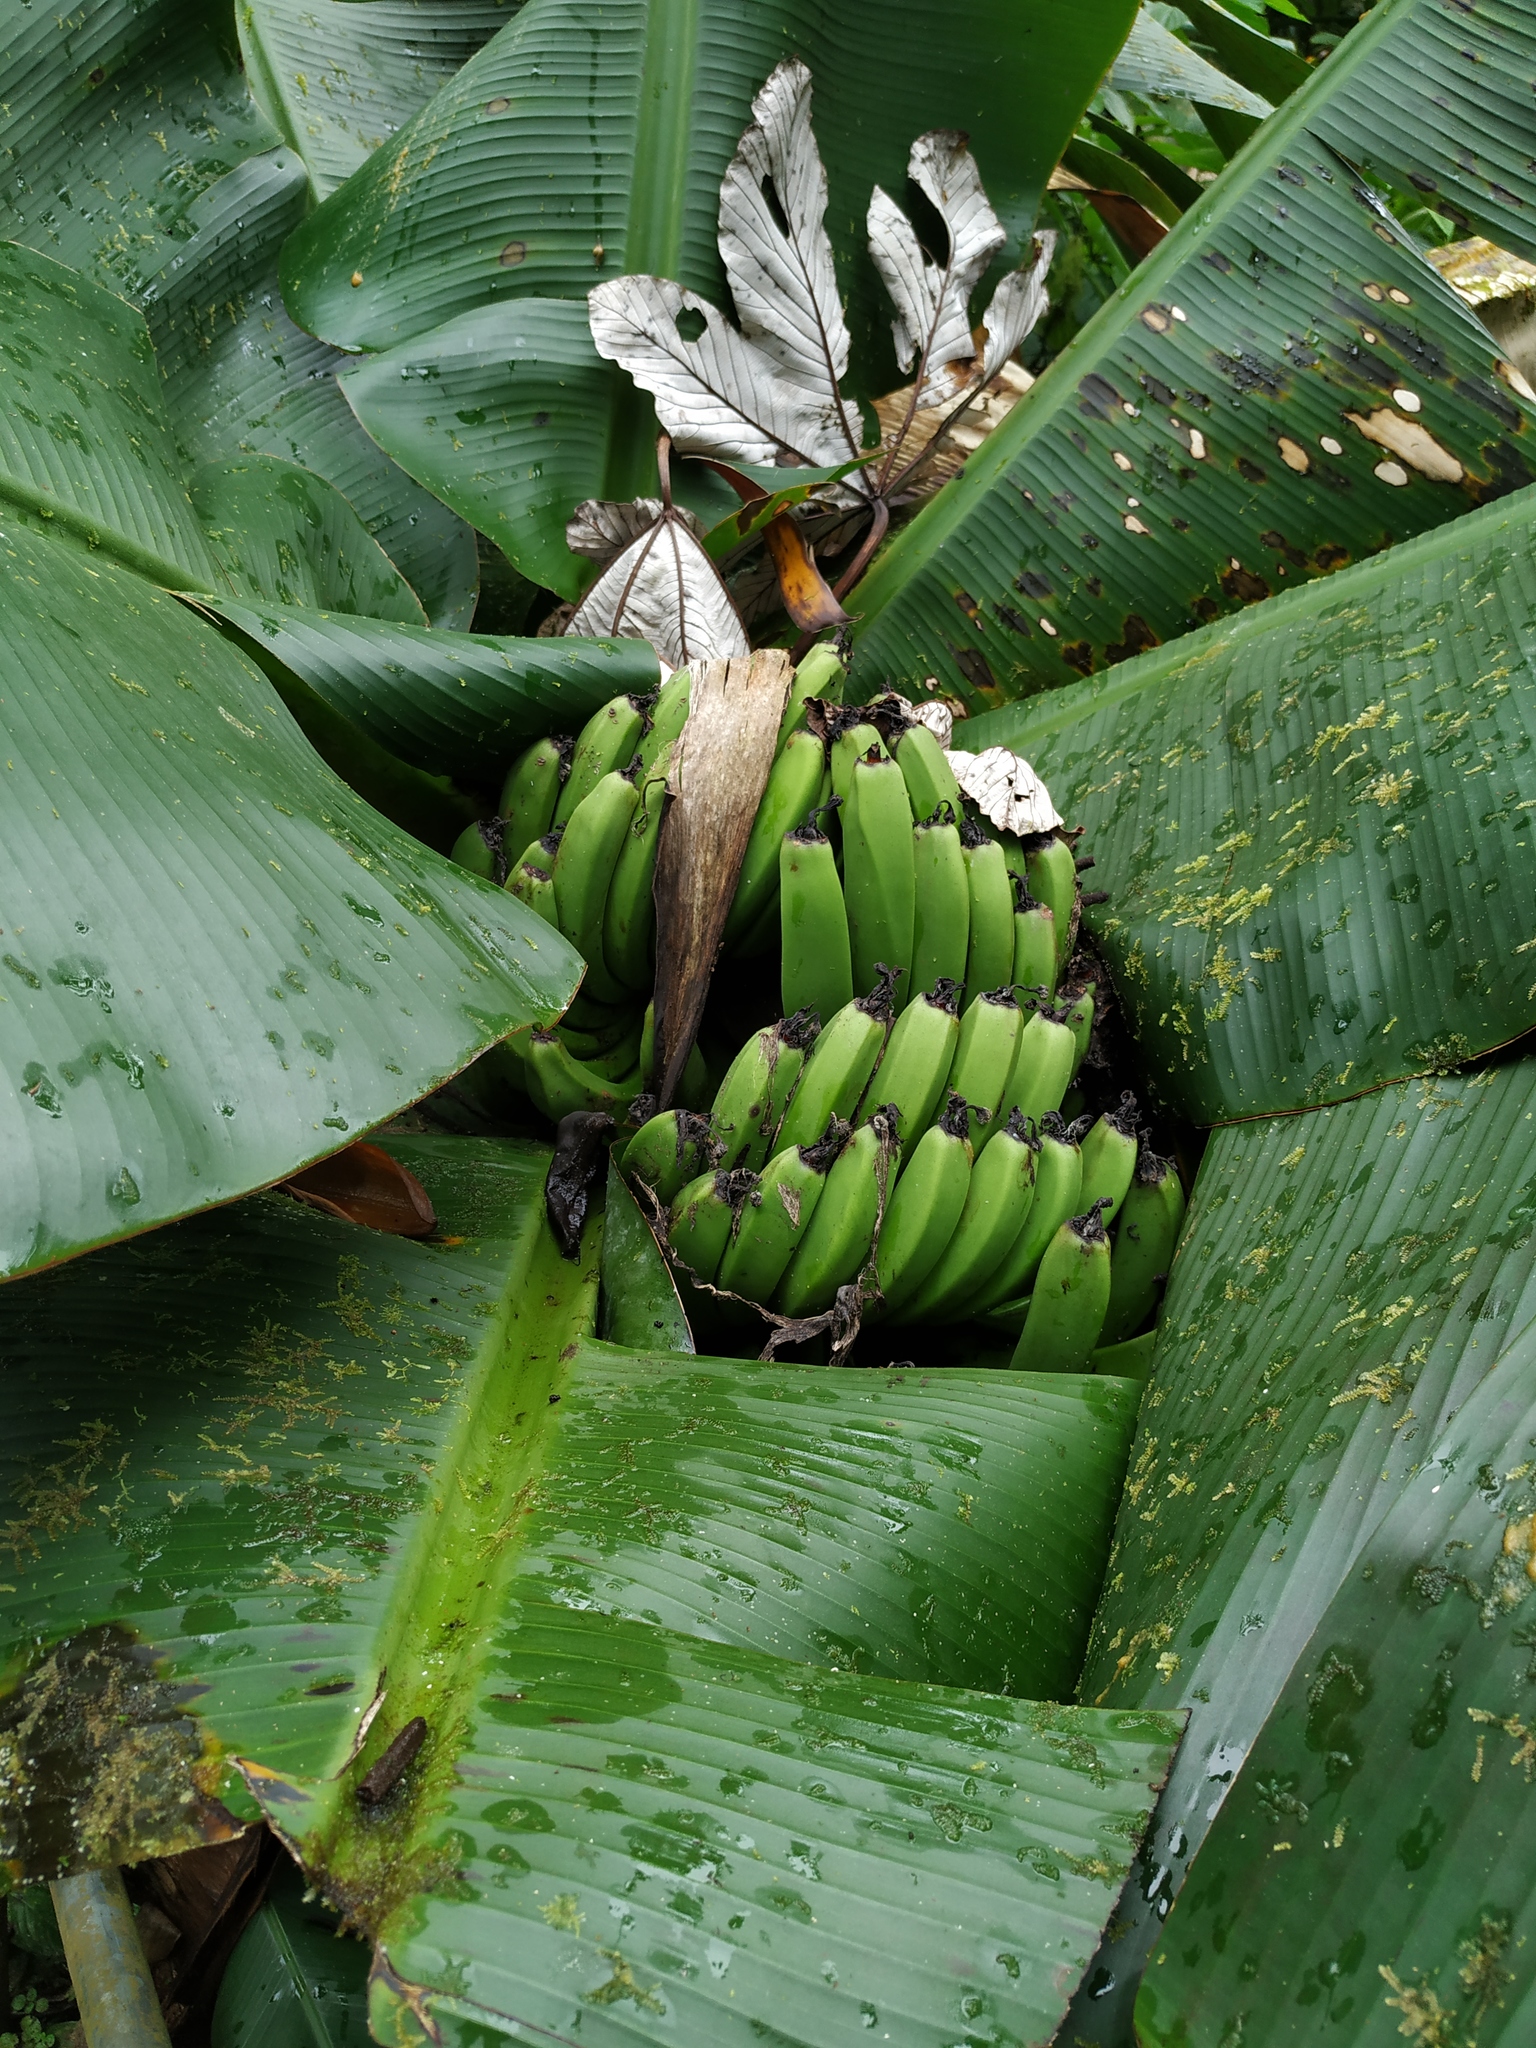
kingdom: Plantae
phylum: Tracheophyta
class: Liliopsida
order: Zingiberales
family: Musaceae
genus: Musa
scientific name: Musa acuminata
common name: Edible banana
